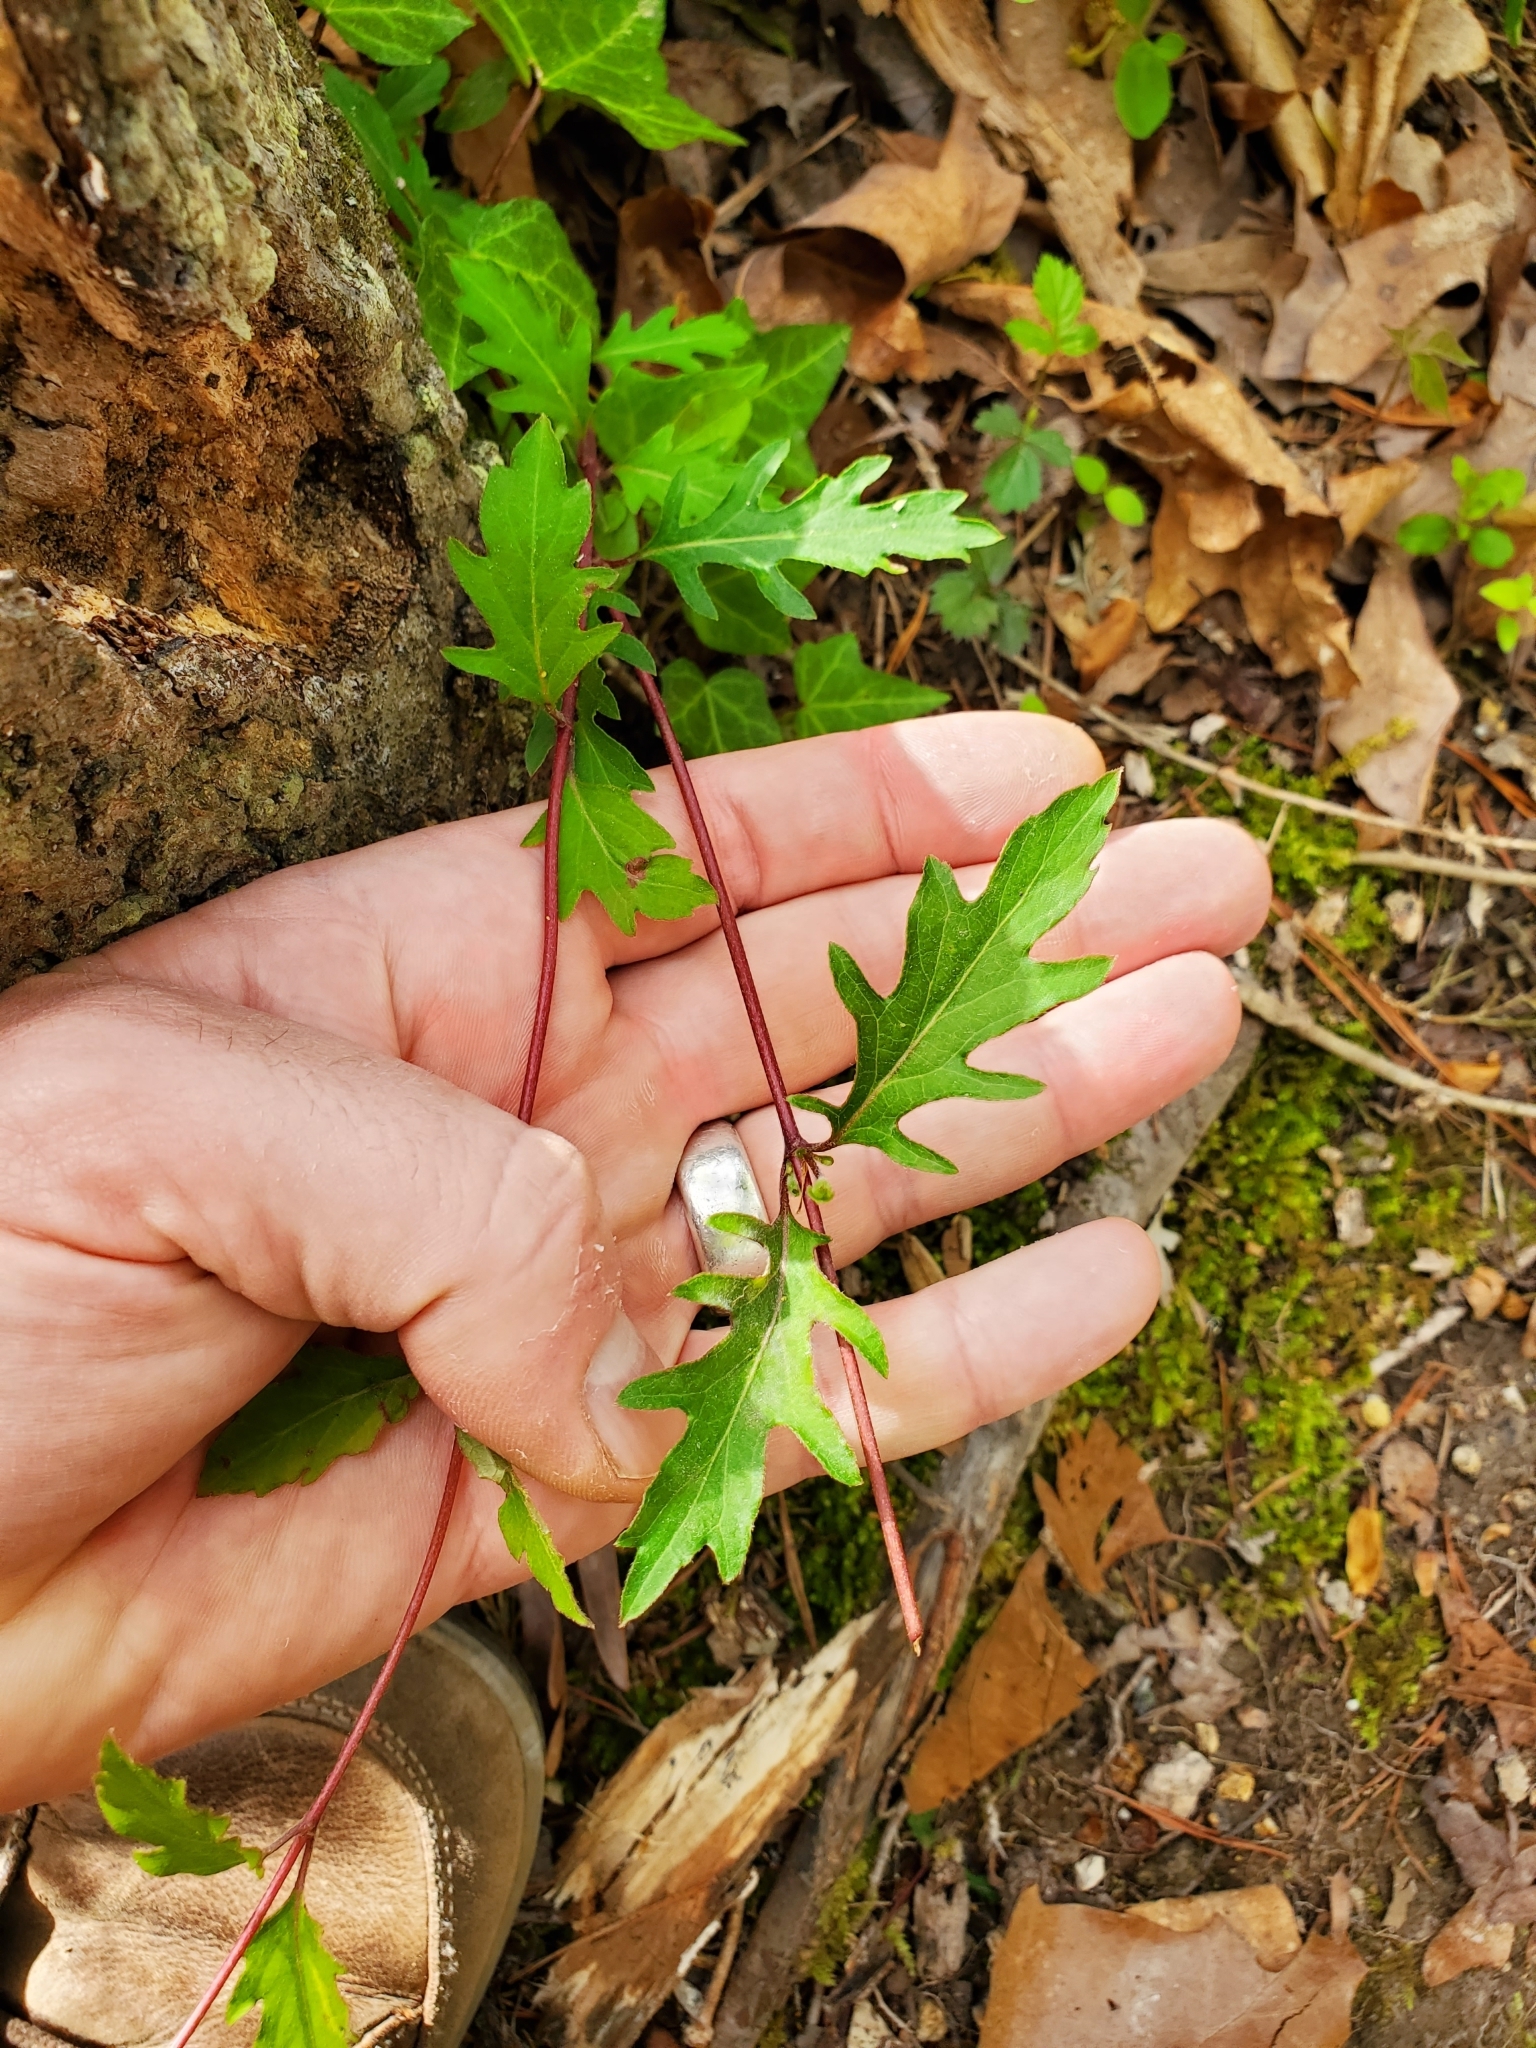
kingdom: Plantae
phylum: Tracheophyta
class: Magnoliopsida
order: Dipsacales
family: Caprifoliaceae
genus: Lonicera
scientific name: Lonicera japonica
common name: Japanese honeysuckle
